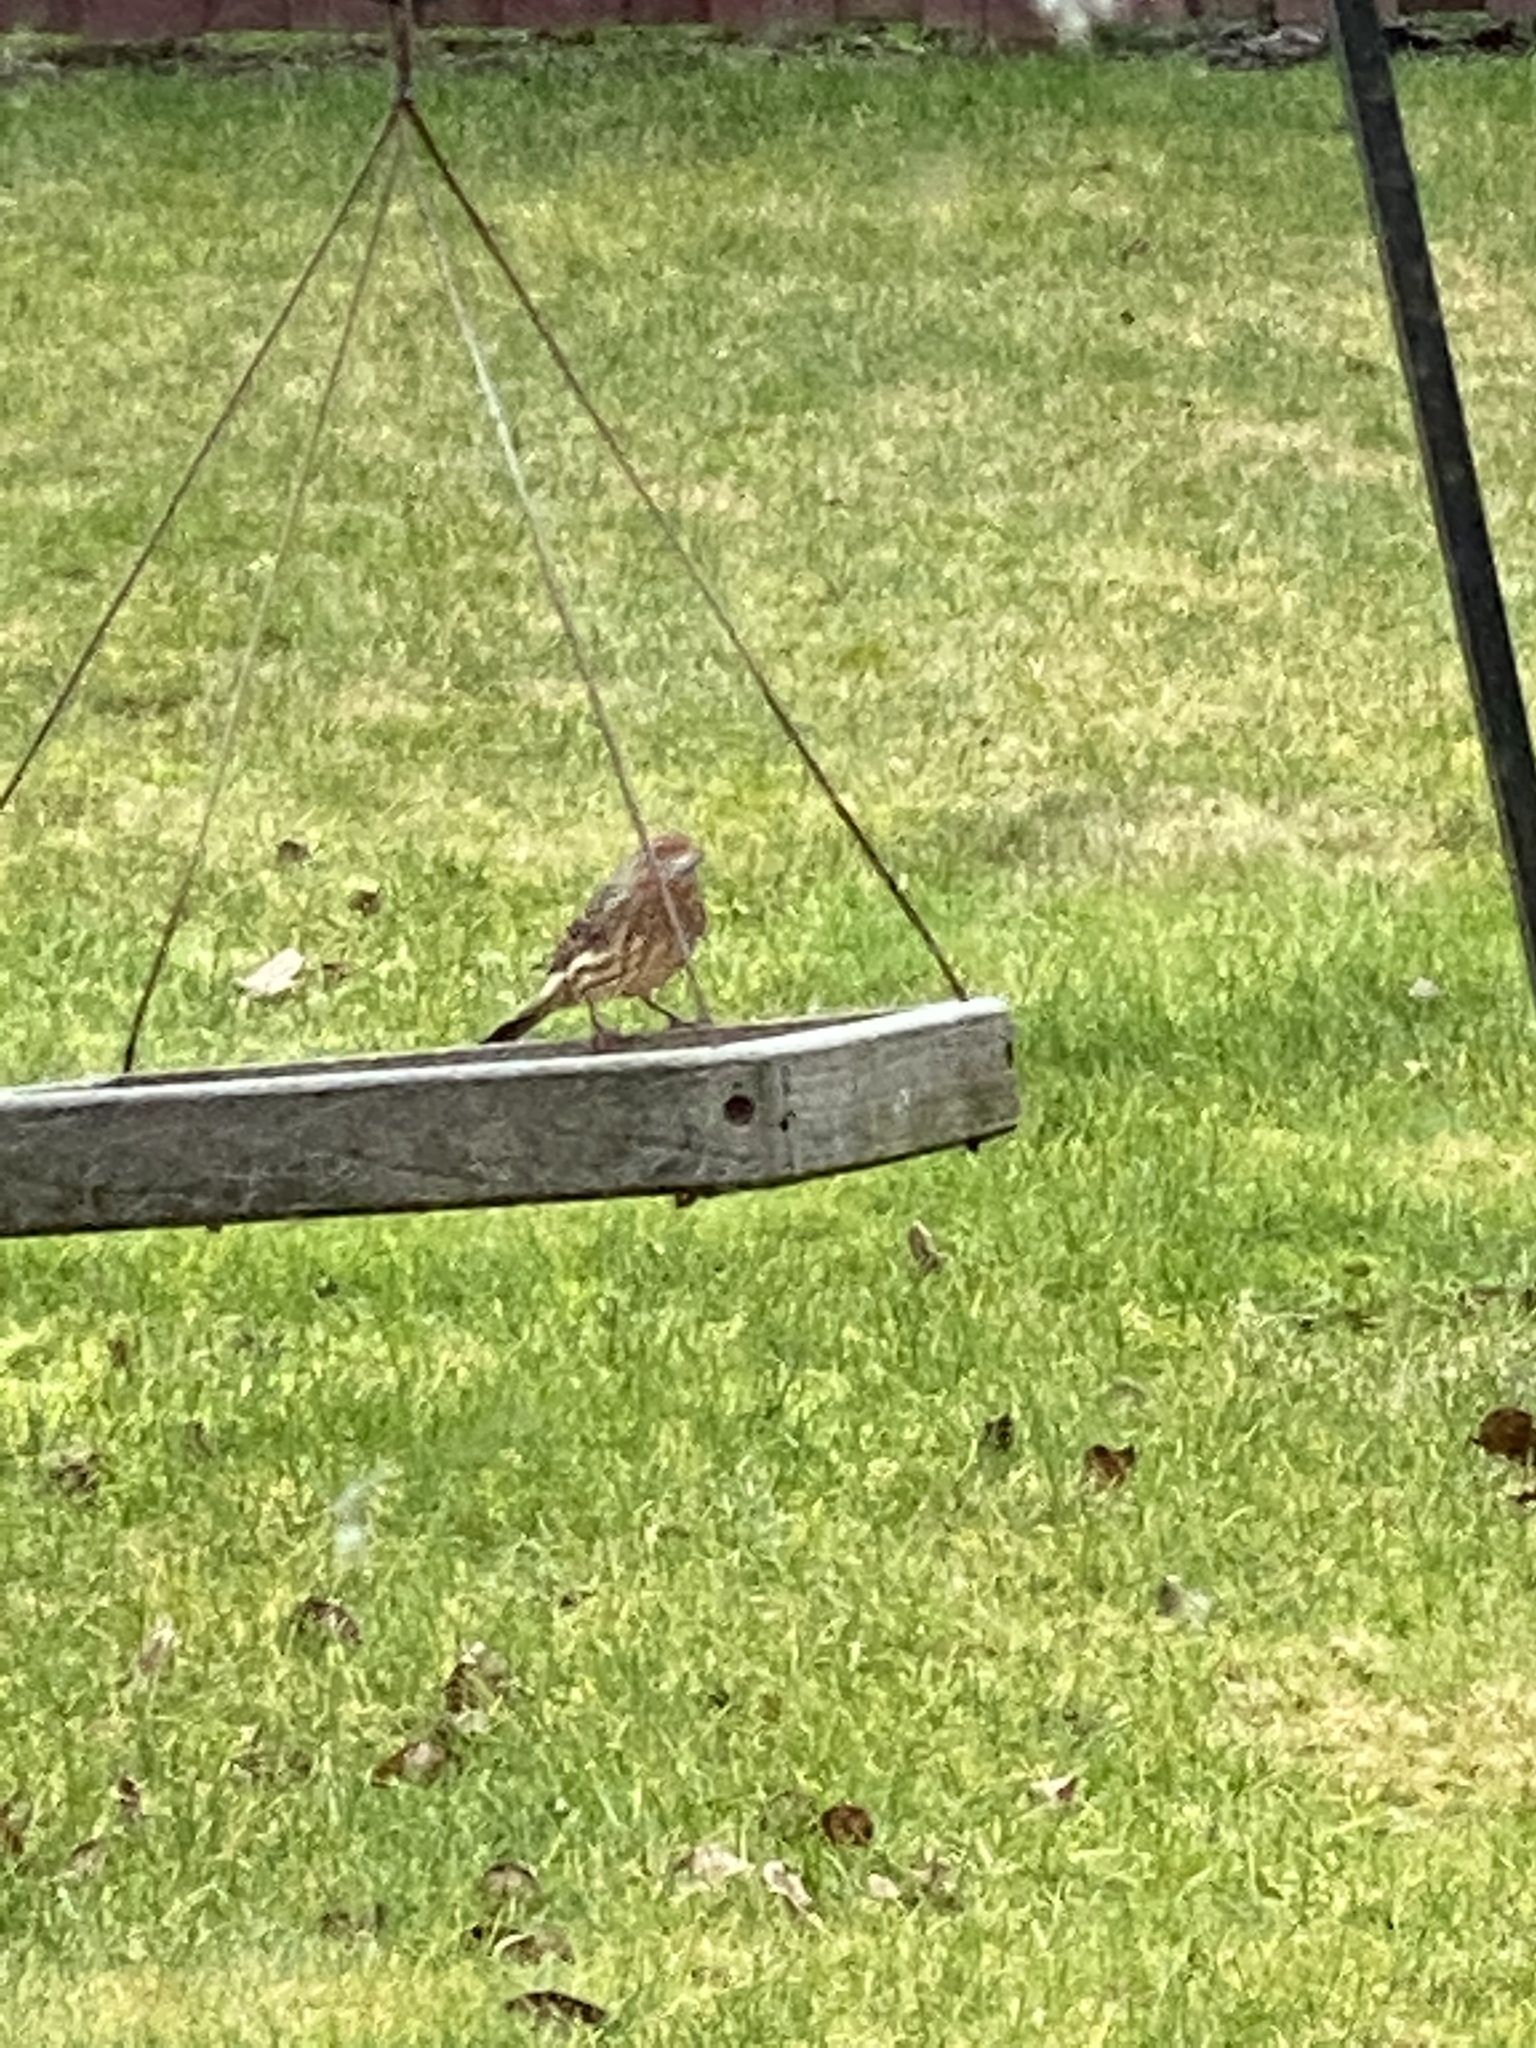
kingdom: Animalia
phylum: Chordata
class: Aves
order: Passeriformes
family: Fringillidae
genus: Haemorhous
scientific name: Haemorhous mexicanus
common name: House finch
